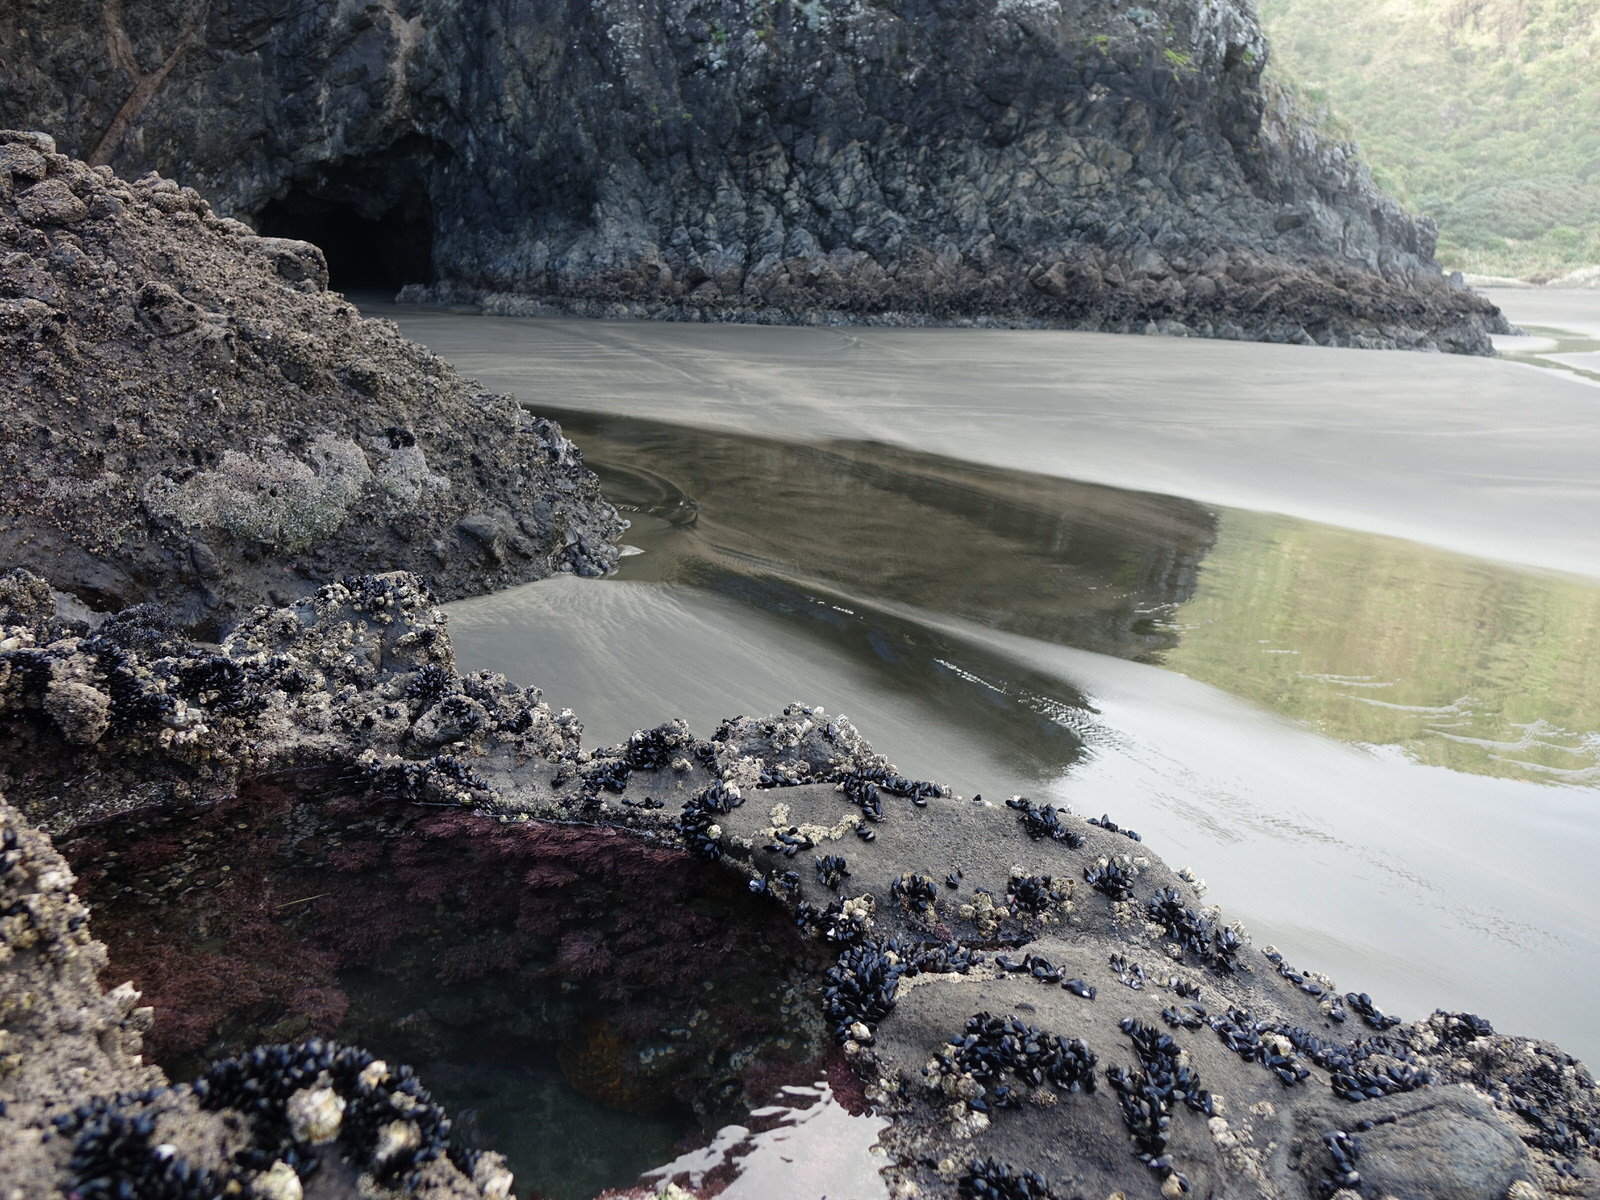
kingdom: Animalia
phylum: Cnidaria
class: Anthozoa
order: Actiniaria
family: Sagartiidae
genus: Anthothoe
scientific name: Anthothoe albocincta
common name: Orange striped anemone
